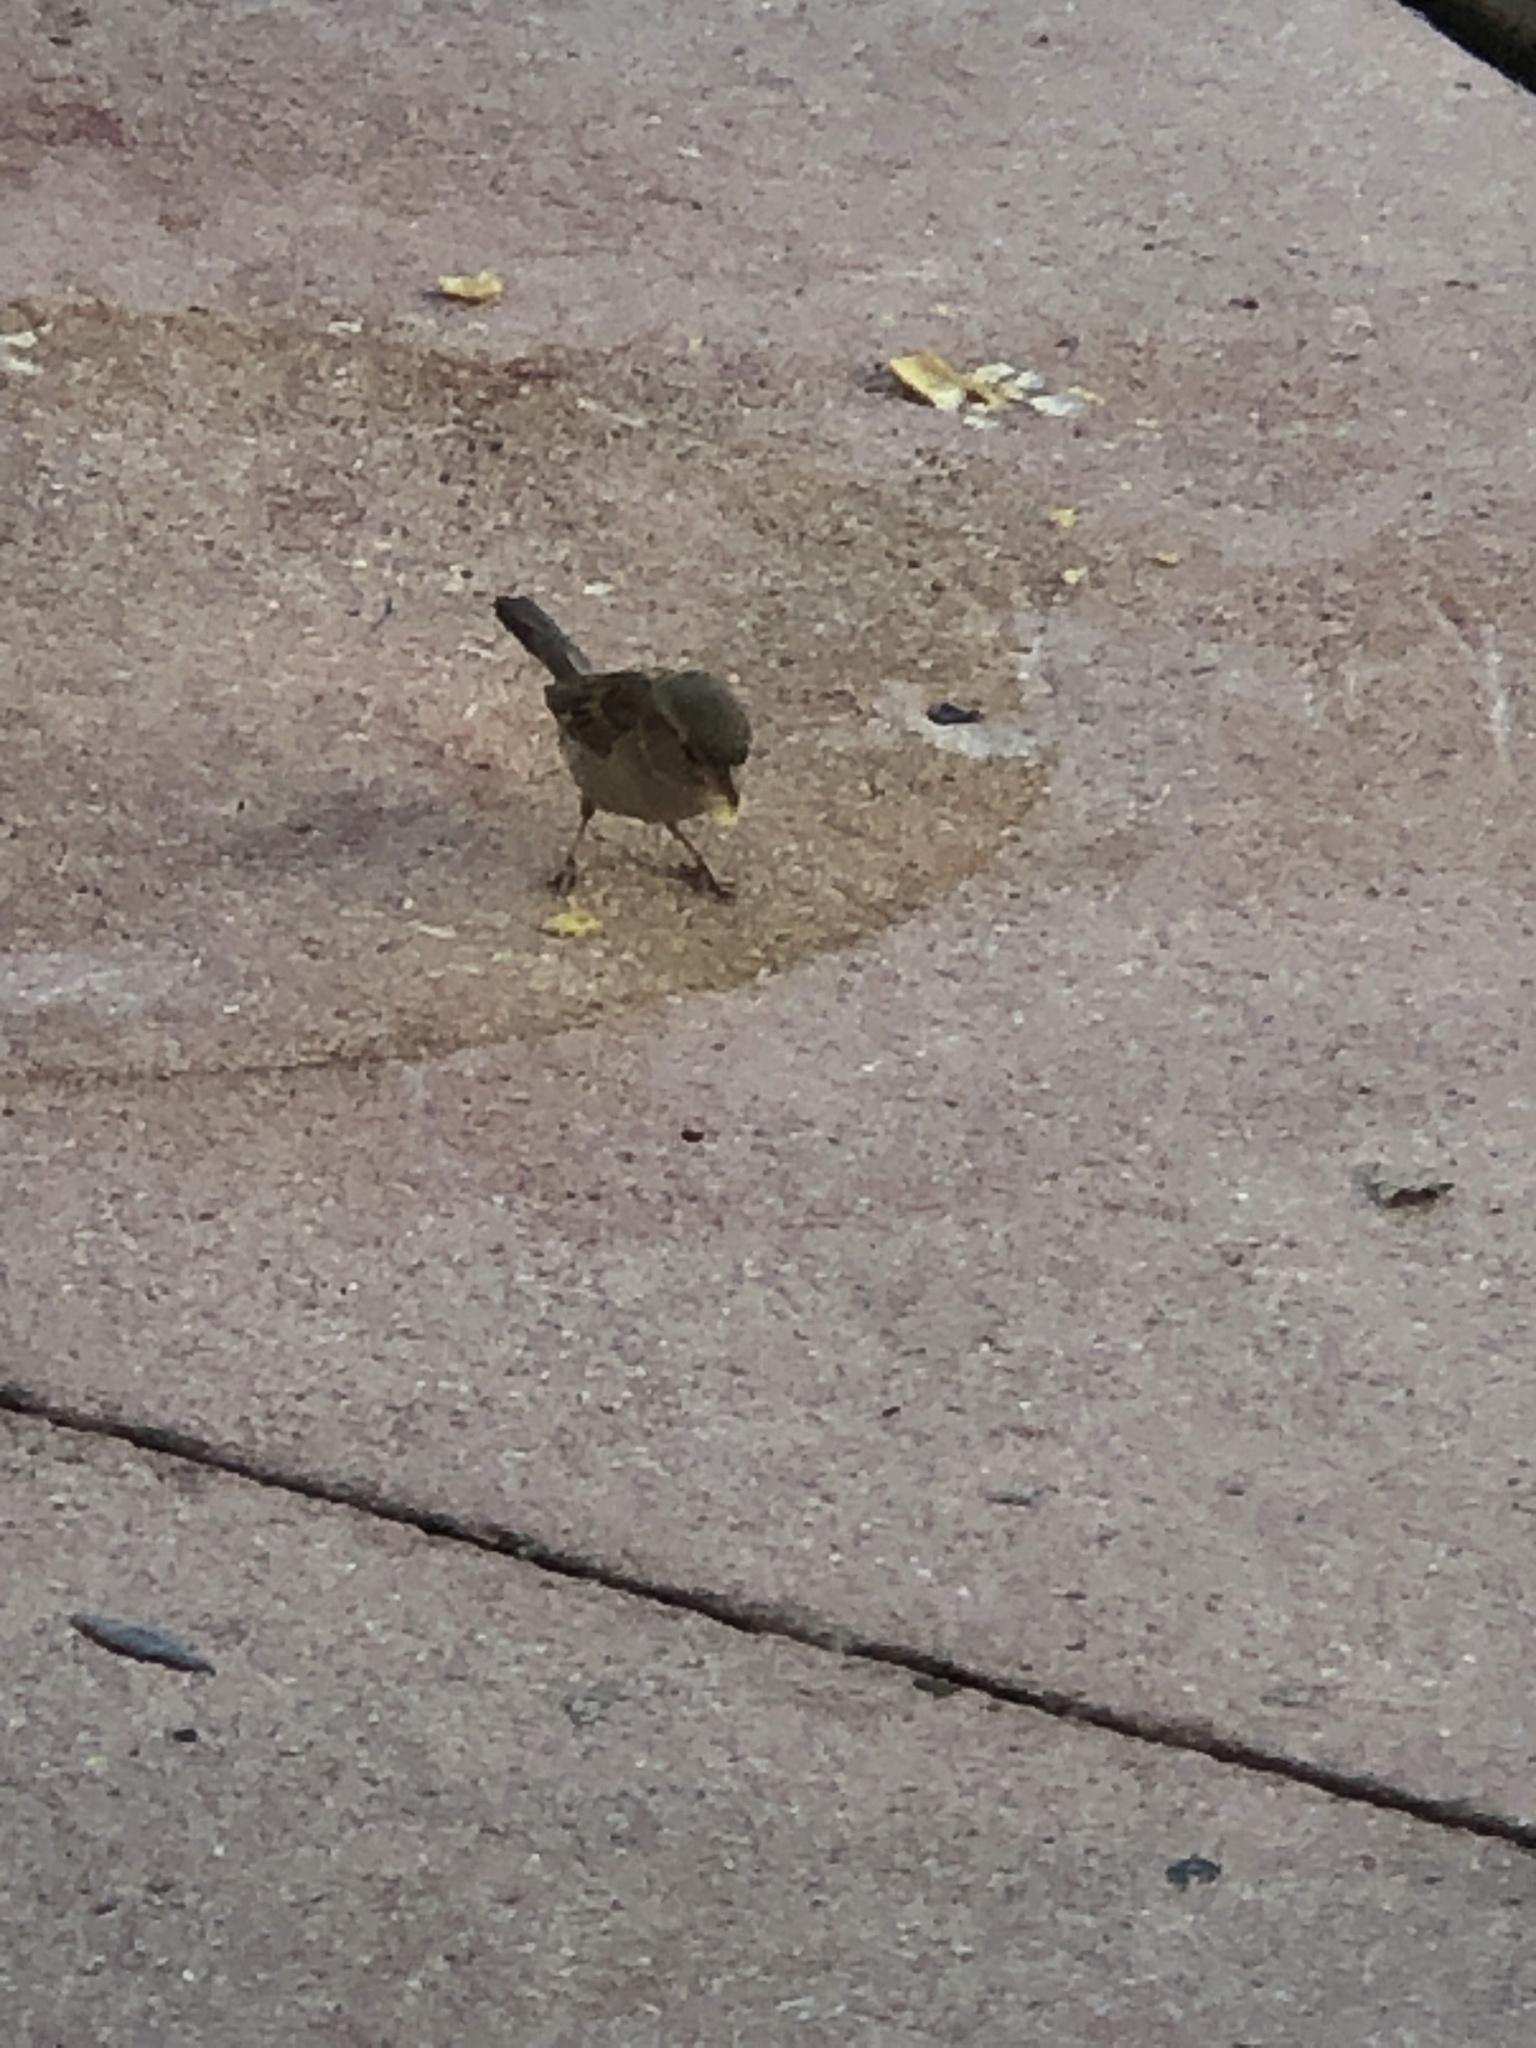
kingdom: Animalia
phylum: Chordata
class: Aves
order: Passeriformes
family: Passeridae
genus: Passer
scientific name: Passer domesticus
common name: House sparrow
